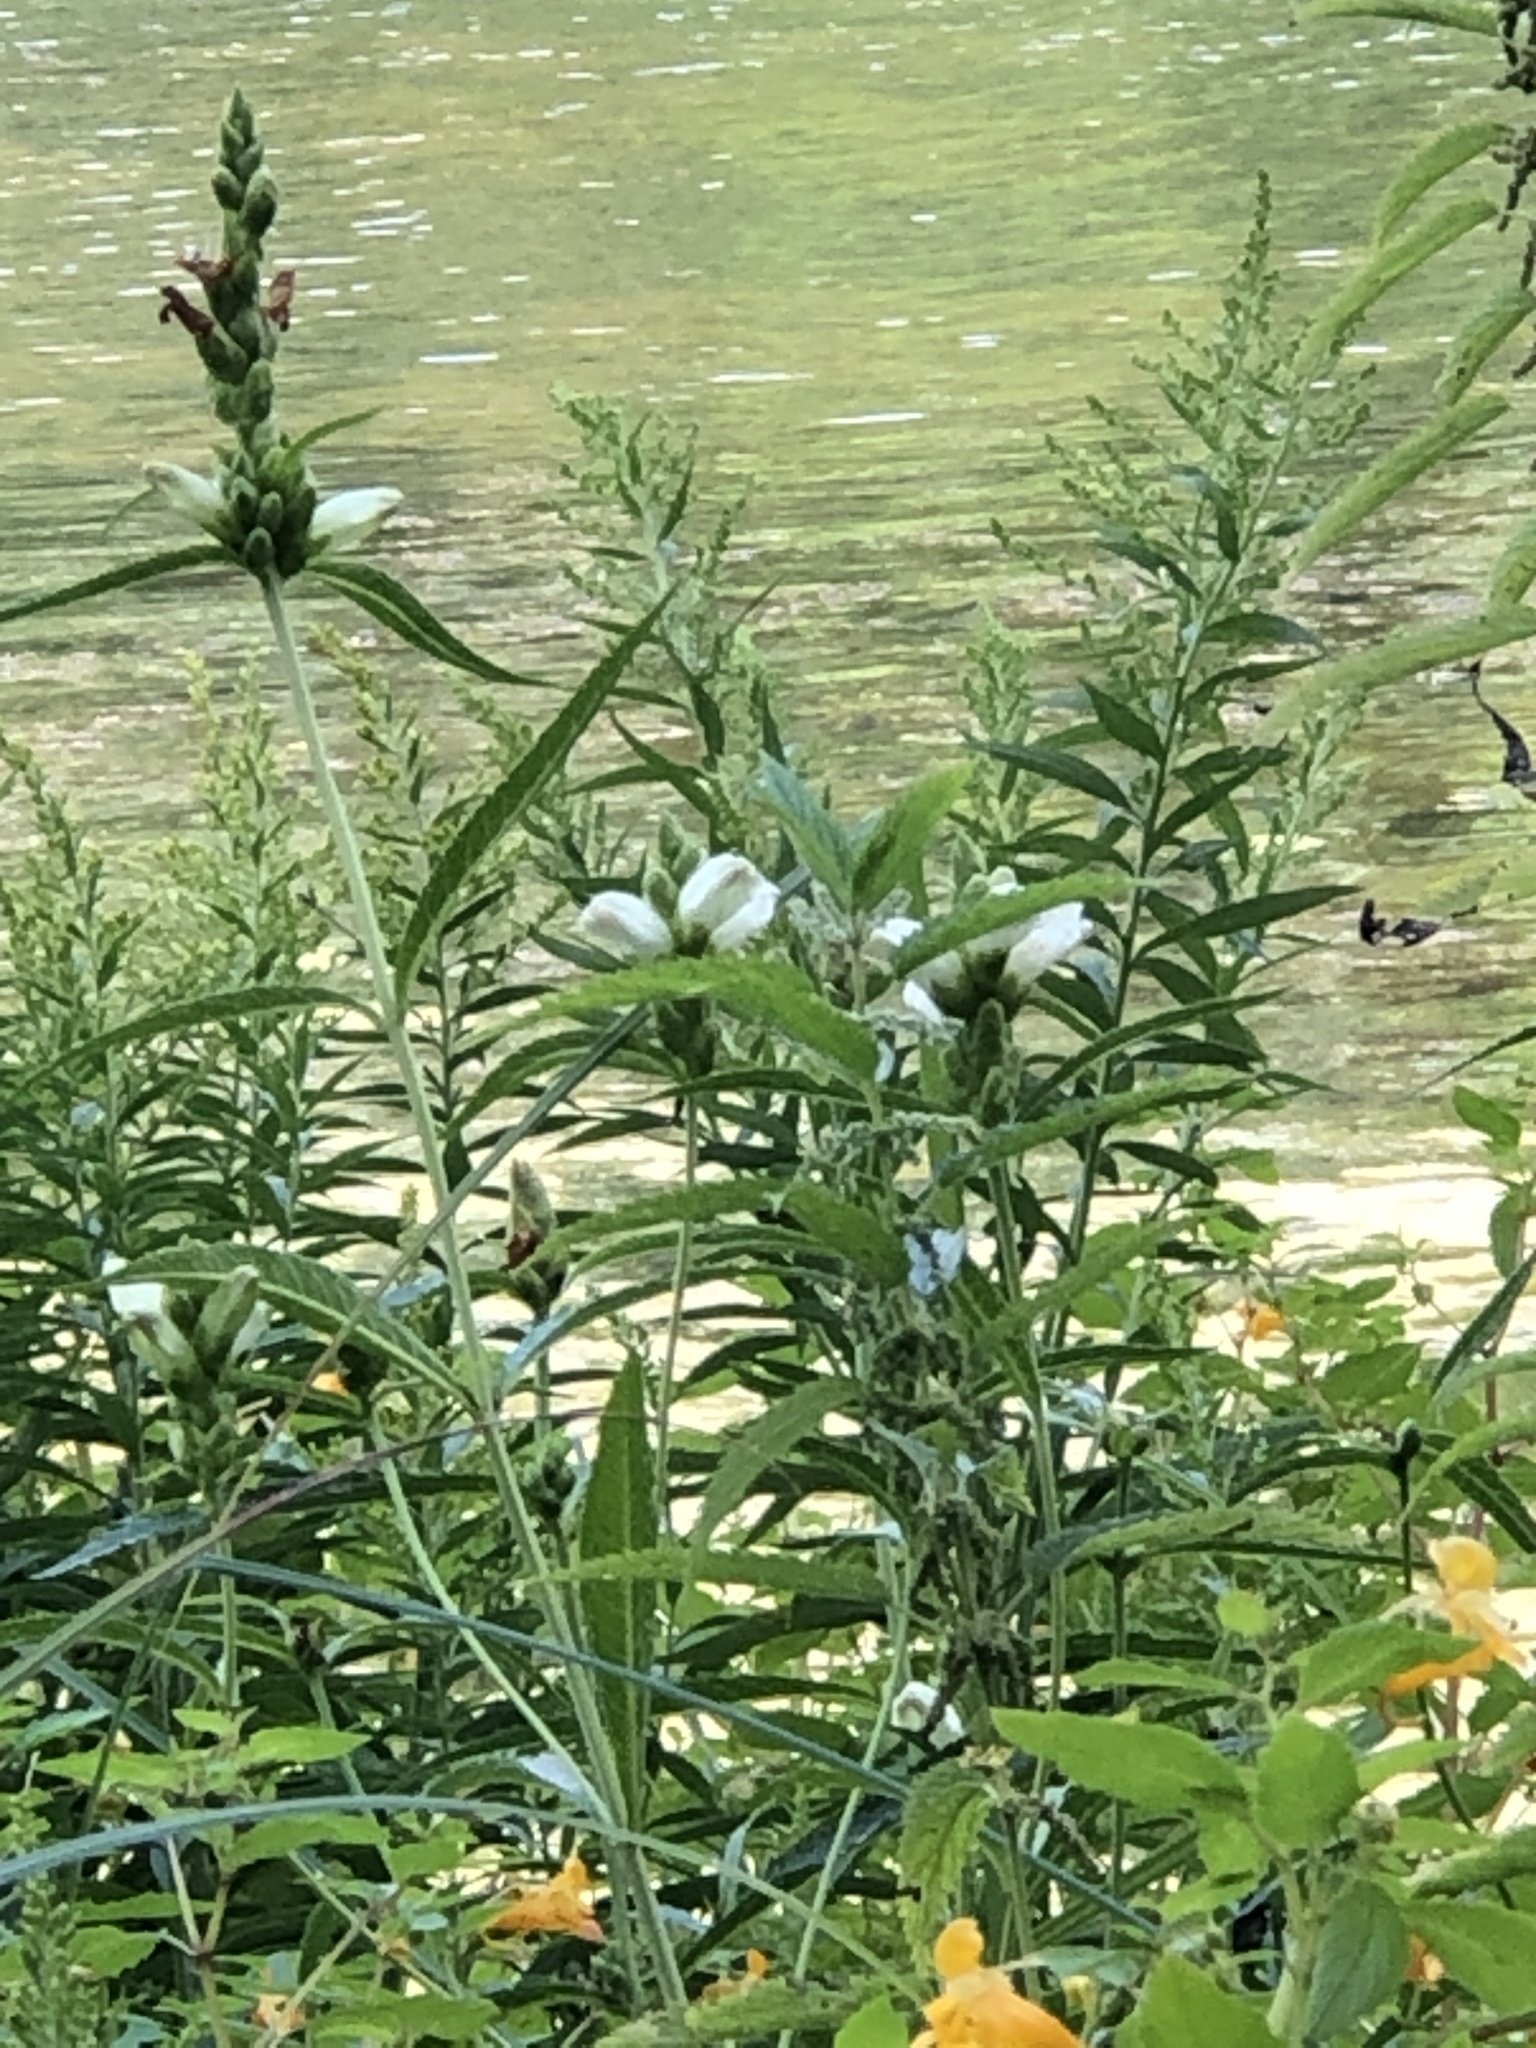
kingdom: Plantae
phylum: Tracheophyta
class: Magnoliopsida
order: Lamiales
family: Plantaginaceae
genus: Chelone
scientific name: Chelone glabra
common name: Snakehead
